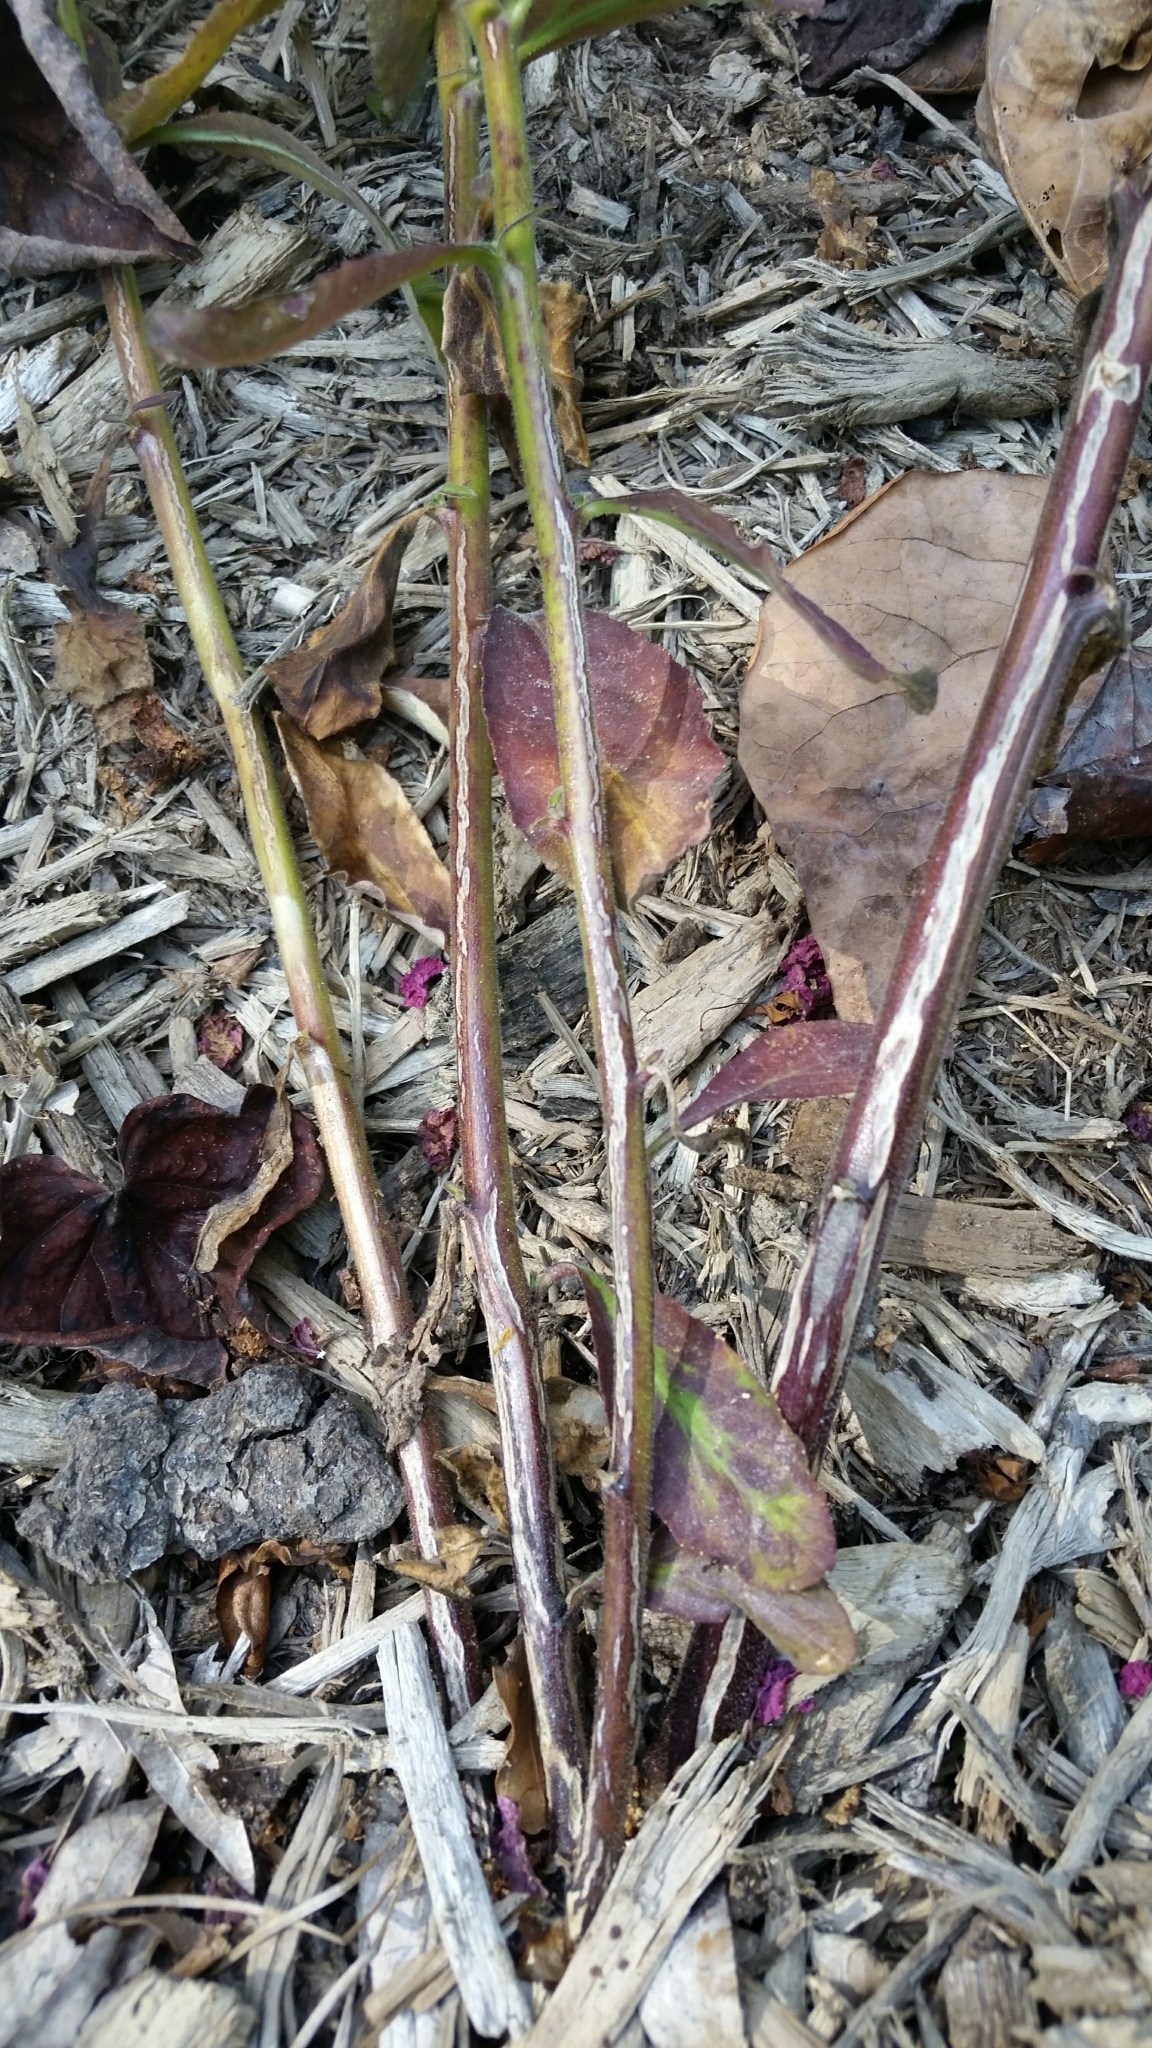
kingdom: Plantae
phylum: Tracheophyta
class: Magnoliopsida
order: Asterales
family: Campanulaceae
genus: Lobelia
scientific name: Lobelia puberula
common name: Purple dewdrop
